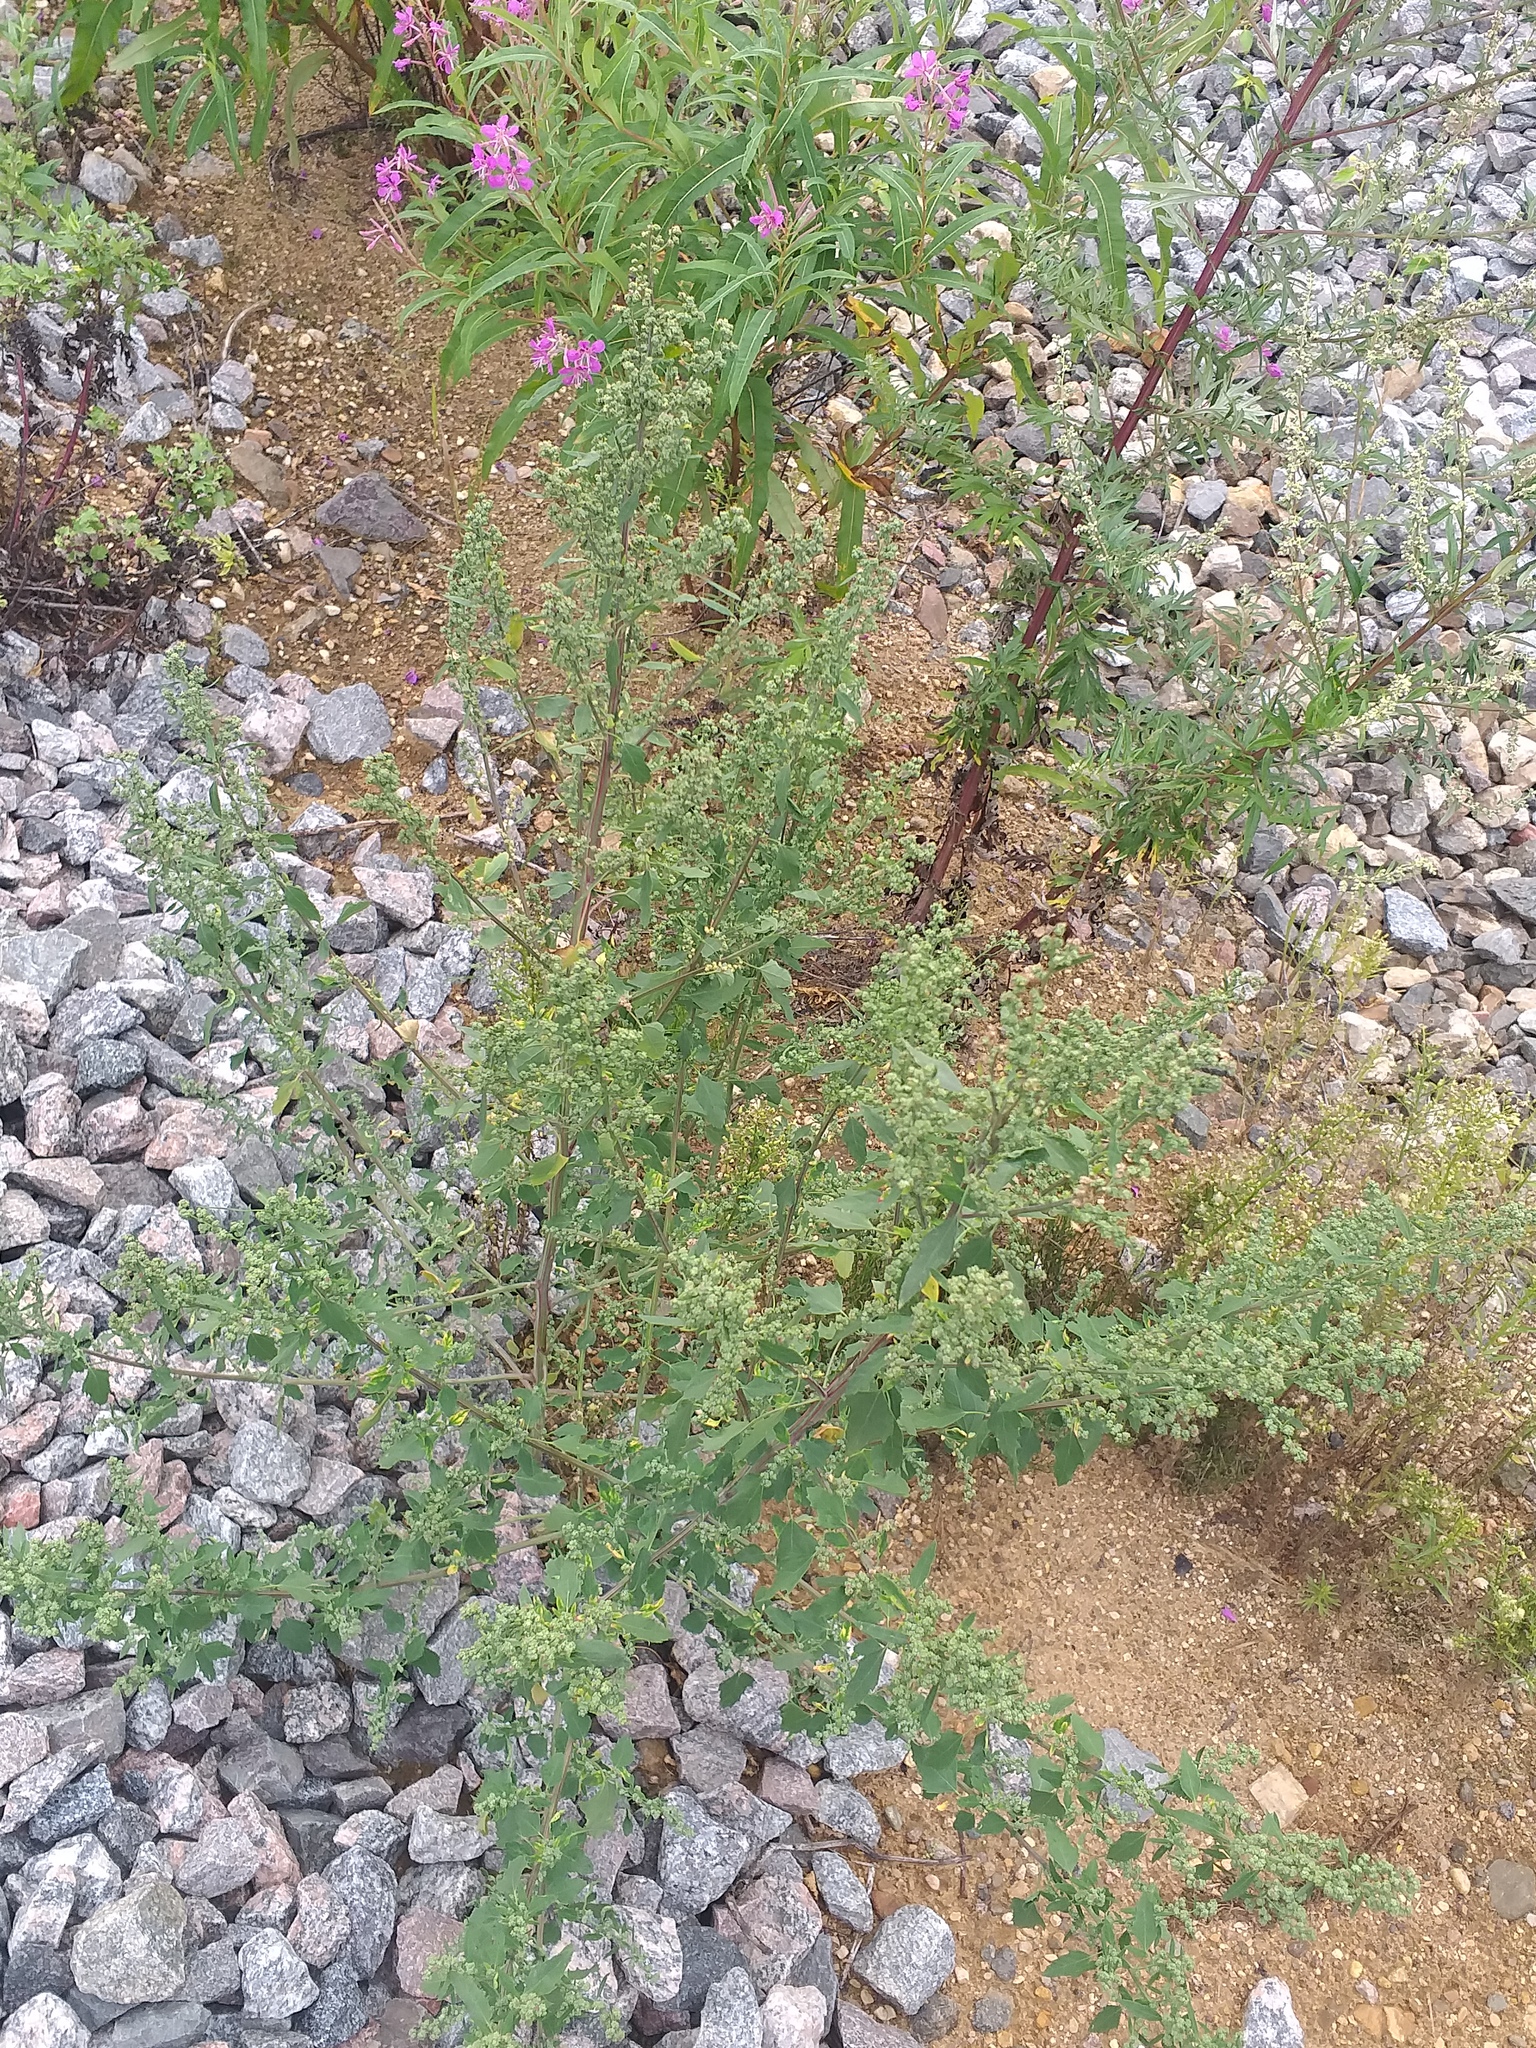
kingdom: Plantae
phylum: Tracheophyta
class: Magnoliopsida
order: Caryophyllales
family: Amaranthaceae
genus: Chenopodium
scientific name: Chenopodium album
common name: Fat-hen
